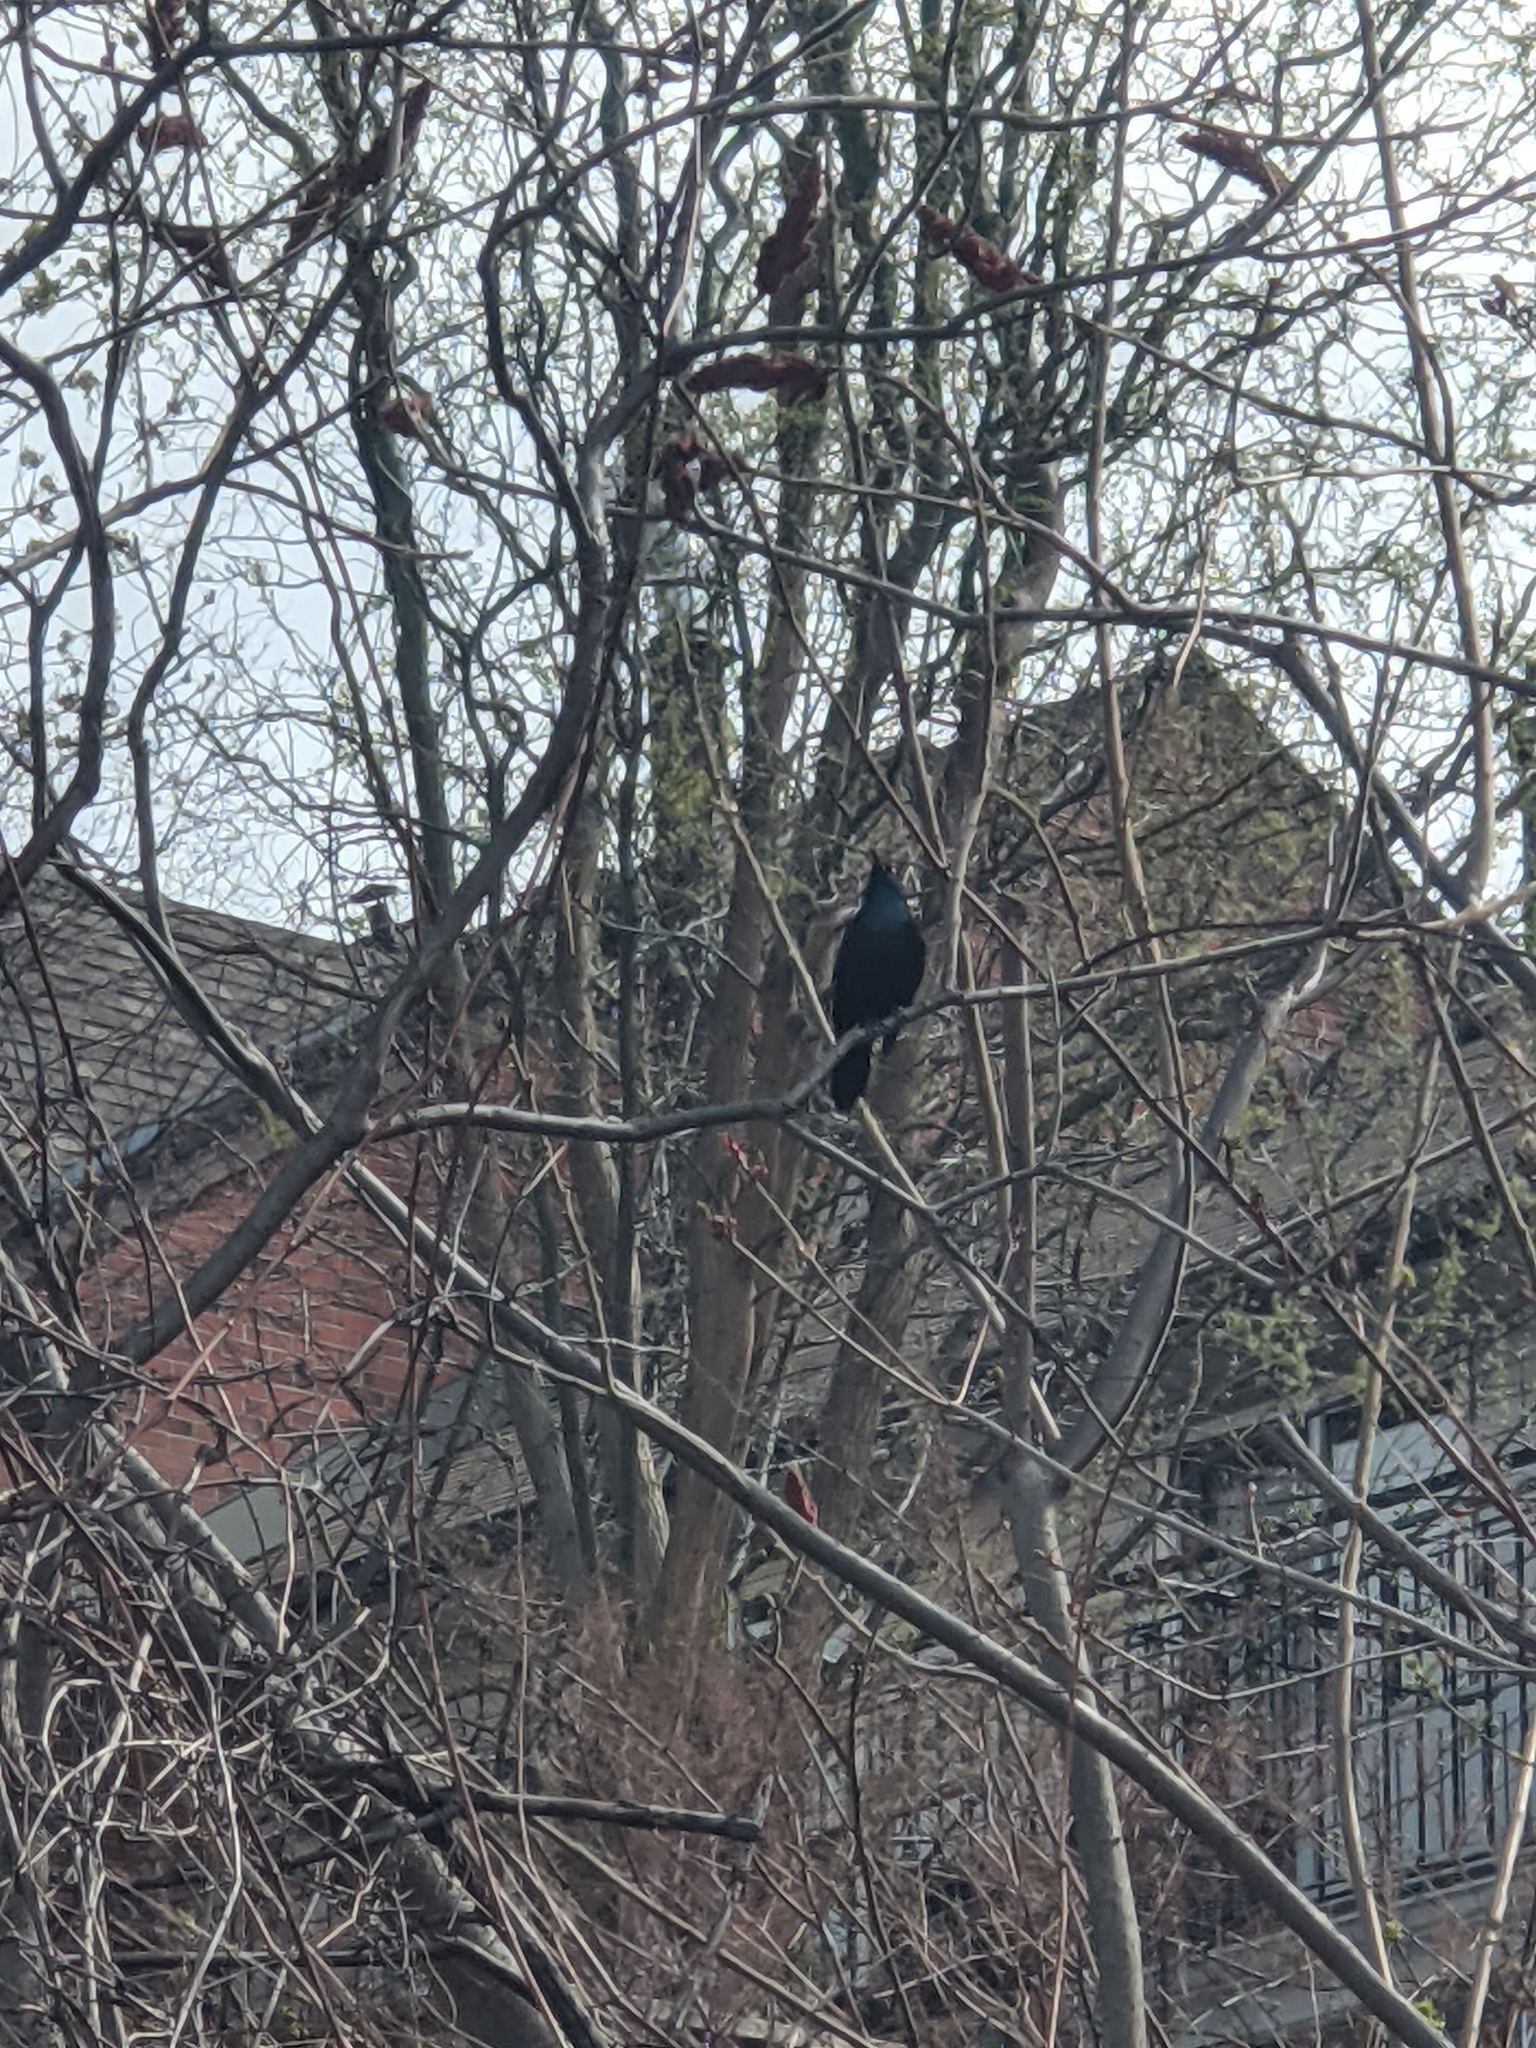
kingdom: Animalia
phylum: Chordata
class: Aves
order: Passeriformes
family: Icteridae
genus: Quiscalus
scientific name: Quiscalus quiscula
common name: Common grackle
